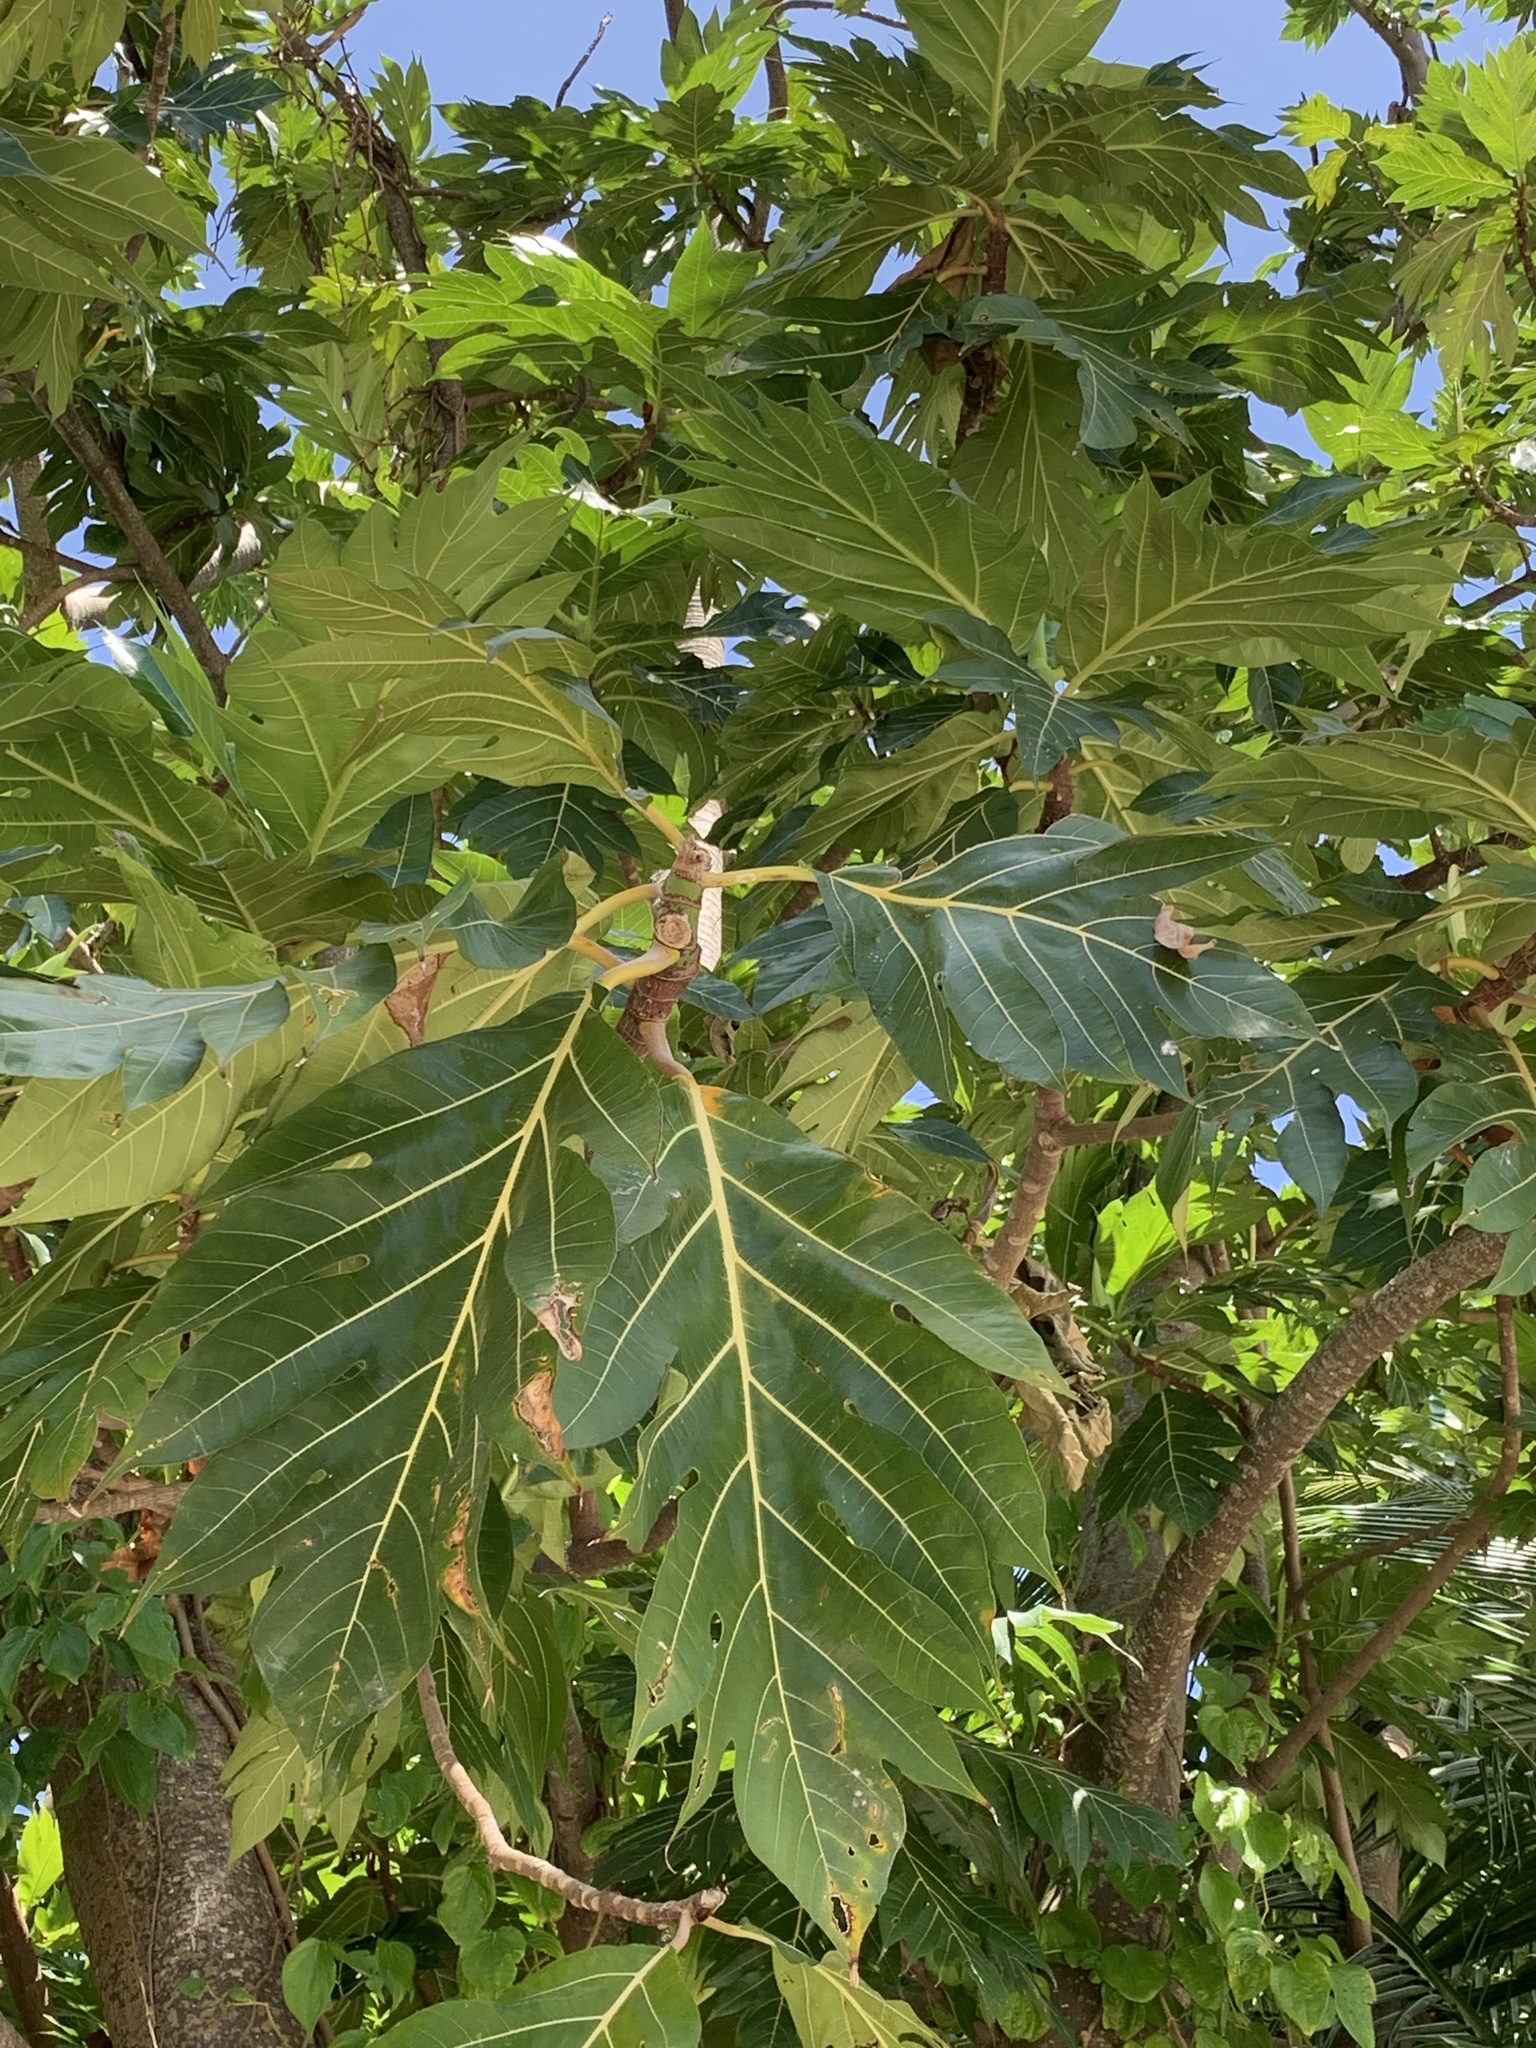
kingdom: Plantae
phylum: Tracheophyta
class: Magnoliopsida
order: Rosales
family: Moraceae
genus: Artocarpus
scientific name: Artocarpus altilis
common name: Breadfruit
